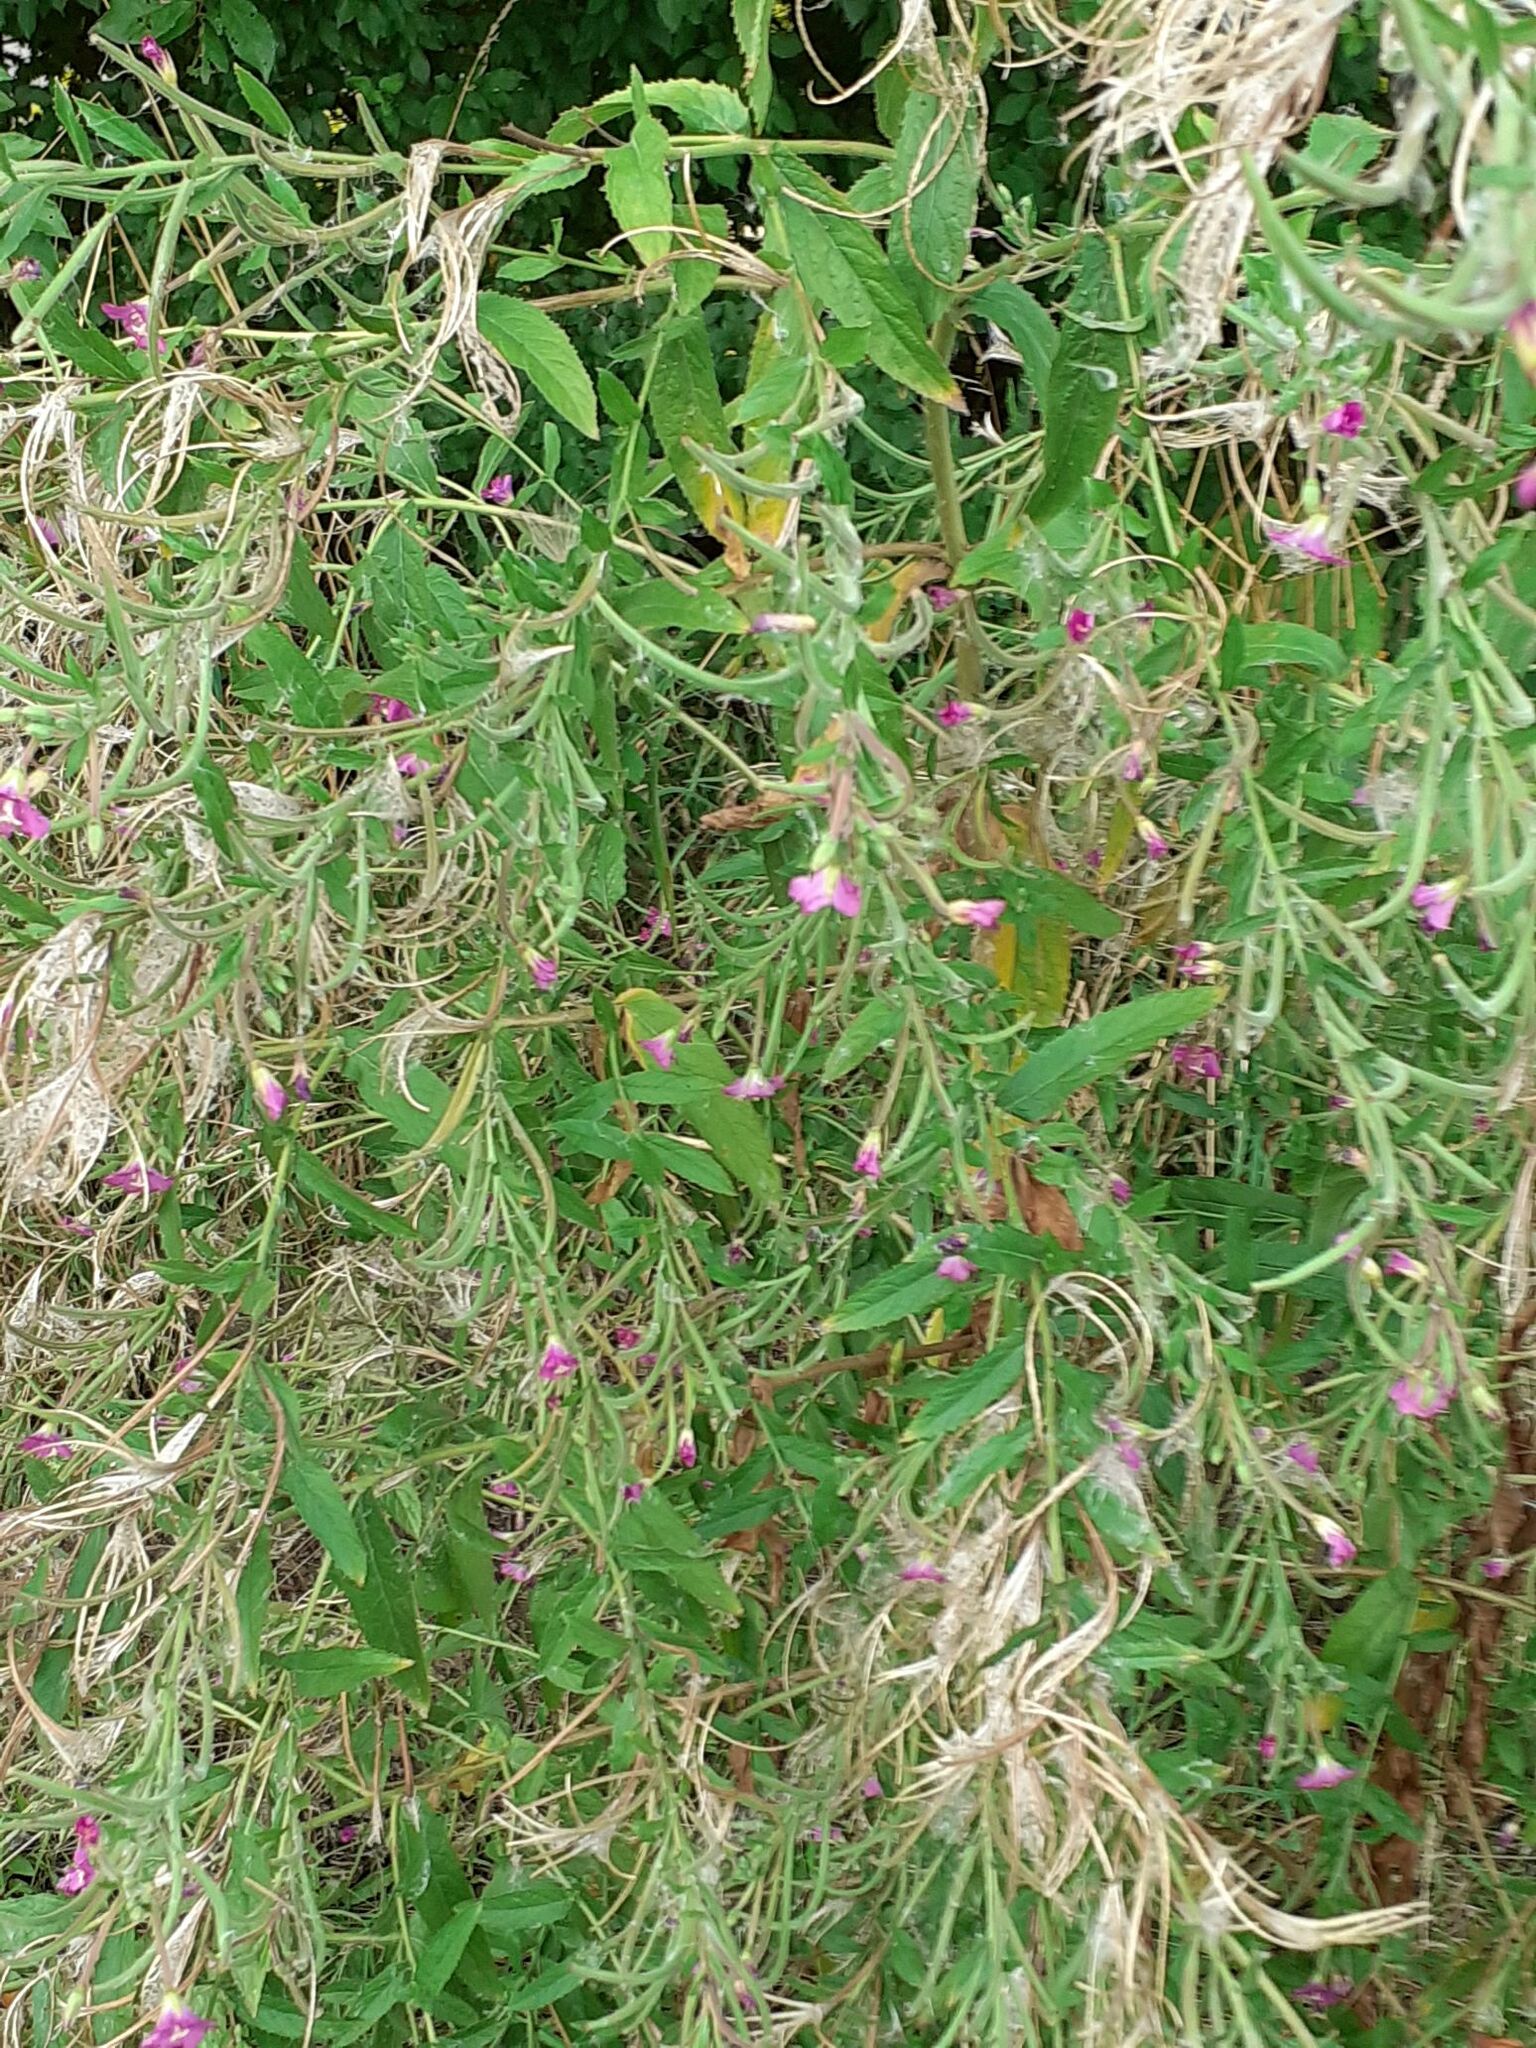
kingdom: Plantae
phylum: Tracheophyta
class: Magnoliopsida
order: Myrtales
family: Onagraceae
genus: Epilobium
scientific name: Epilobium hirsutum
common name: Great willowherb
